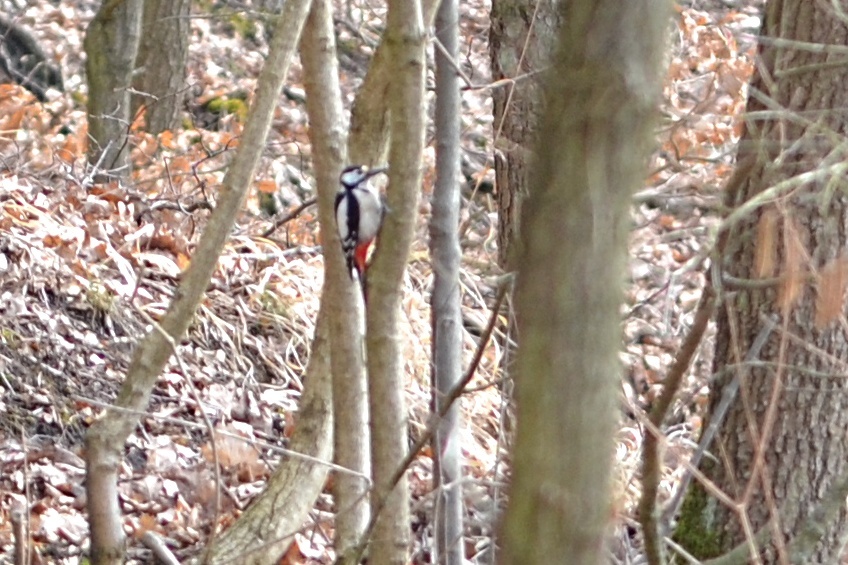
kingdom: Animalia
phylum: Chordata
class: Aves
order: Piciformes
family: Picidae
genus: Dendrocopos
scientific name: Dendrocopos major
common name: Great spotted woodpecker
